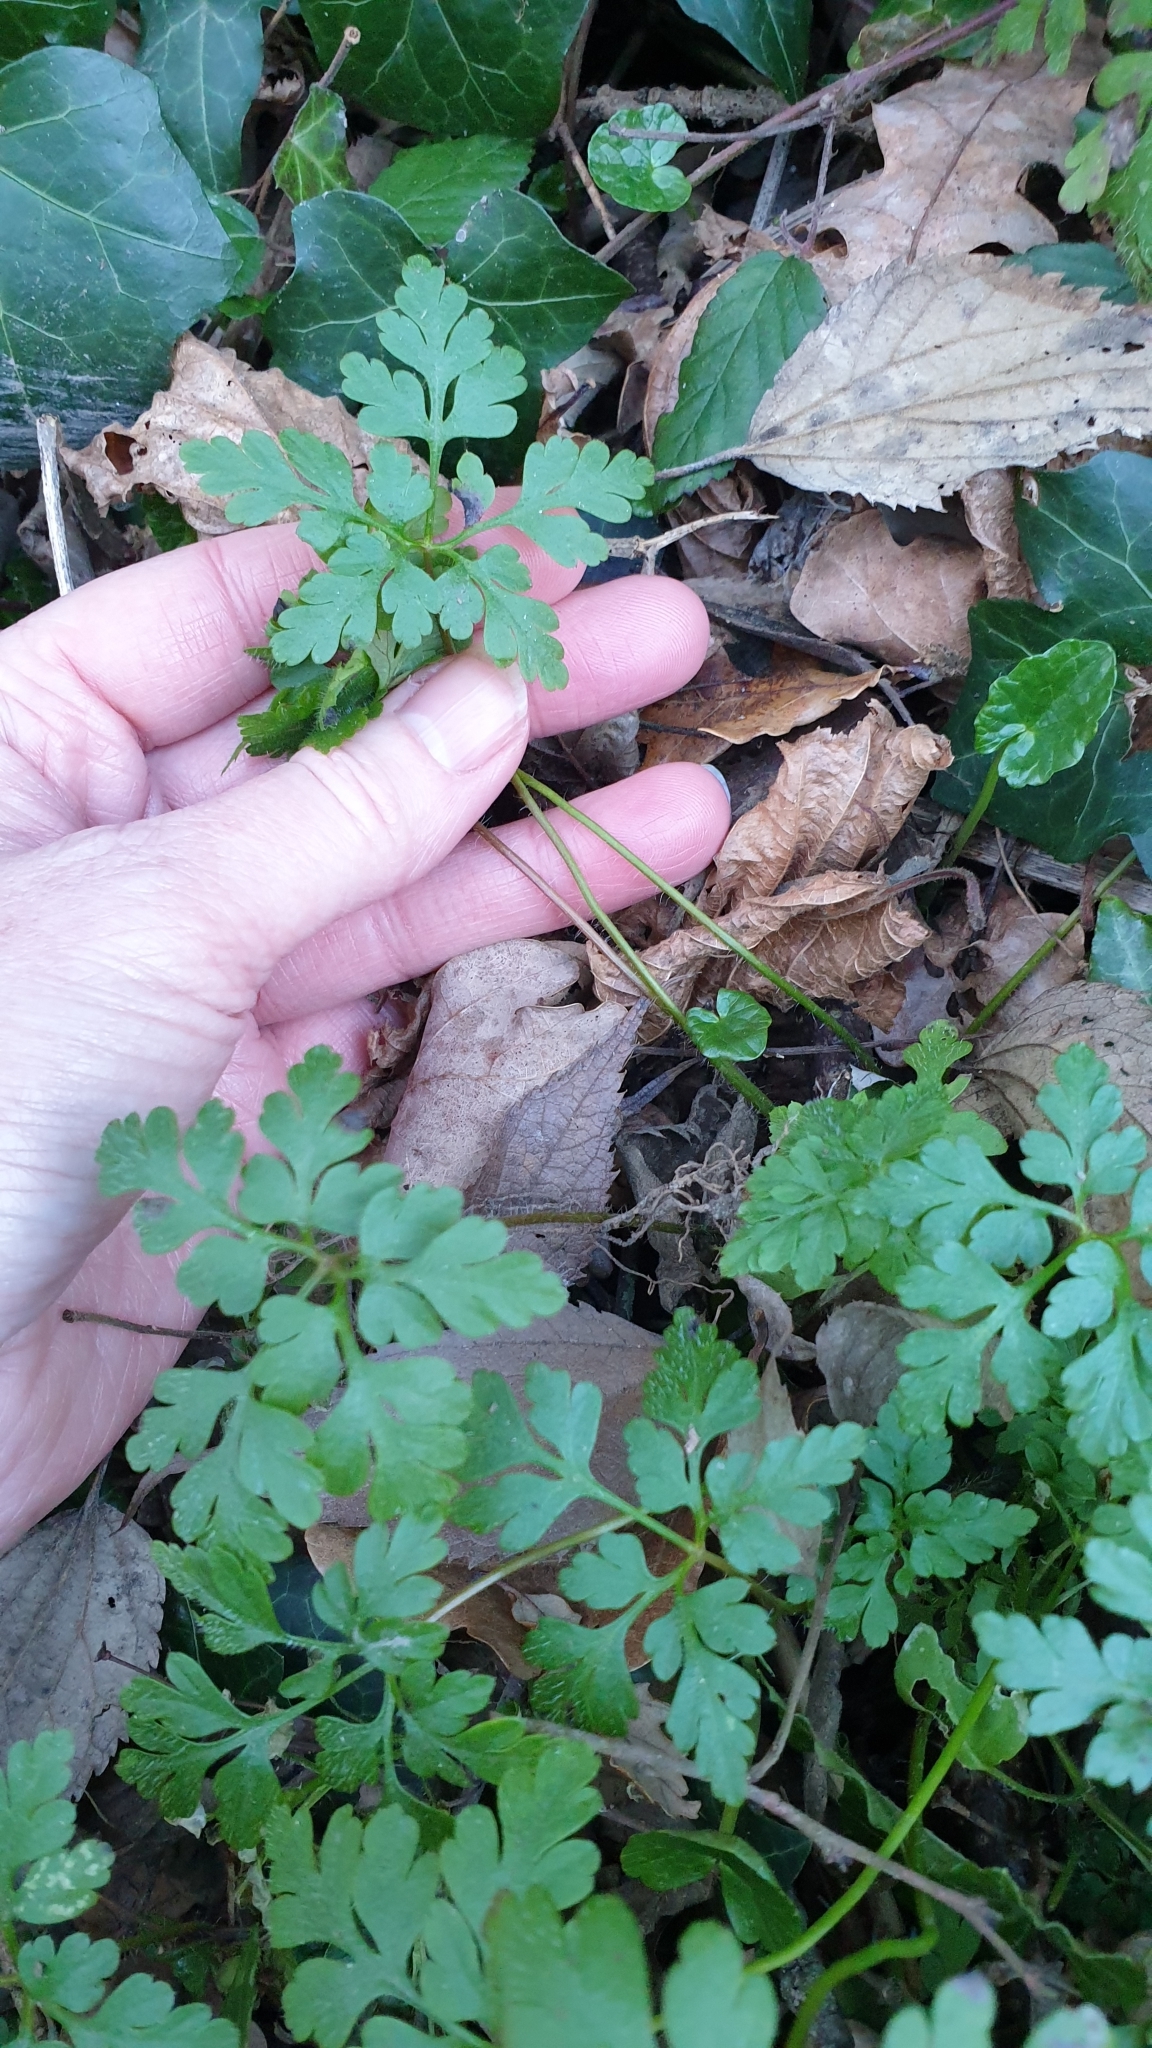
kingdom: Plantae
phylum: Tracheophyta
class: Magnoliopsida
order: Geraniales
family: Geraniaceae
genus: Geranium
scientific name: Geranium robertianum
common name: Herb-robert
